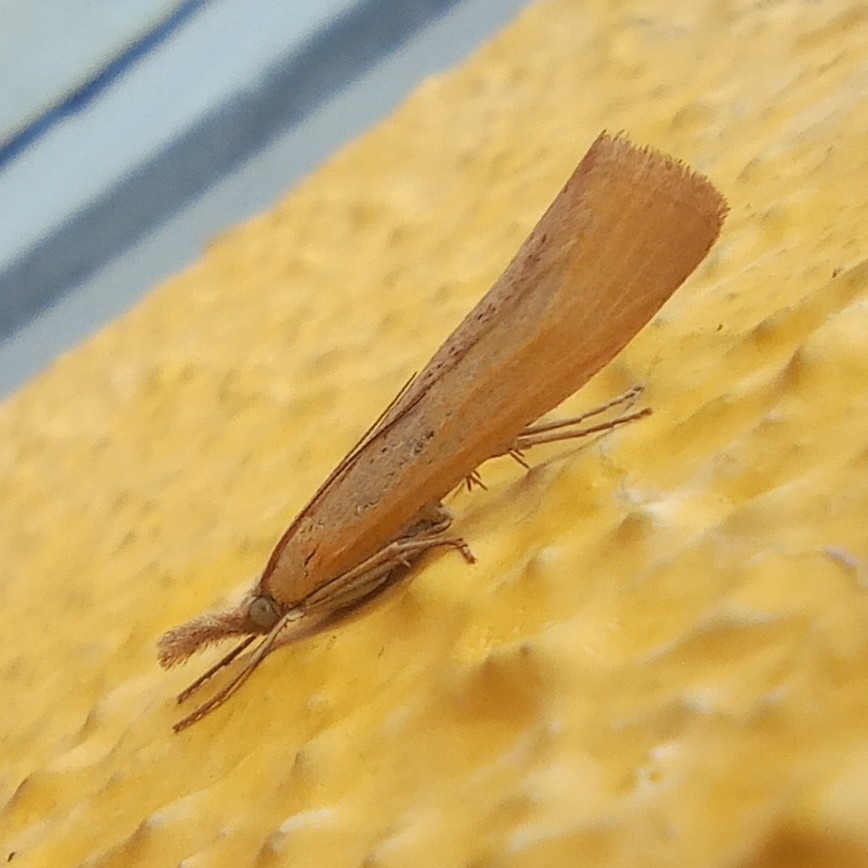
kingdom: Animalia
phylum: Arthropoda
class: Insecta
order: Lepidoptera
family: Crambidae
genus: Pediasia
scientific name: Pediasia luteella
